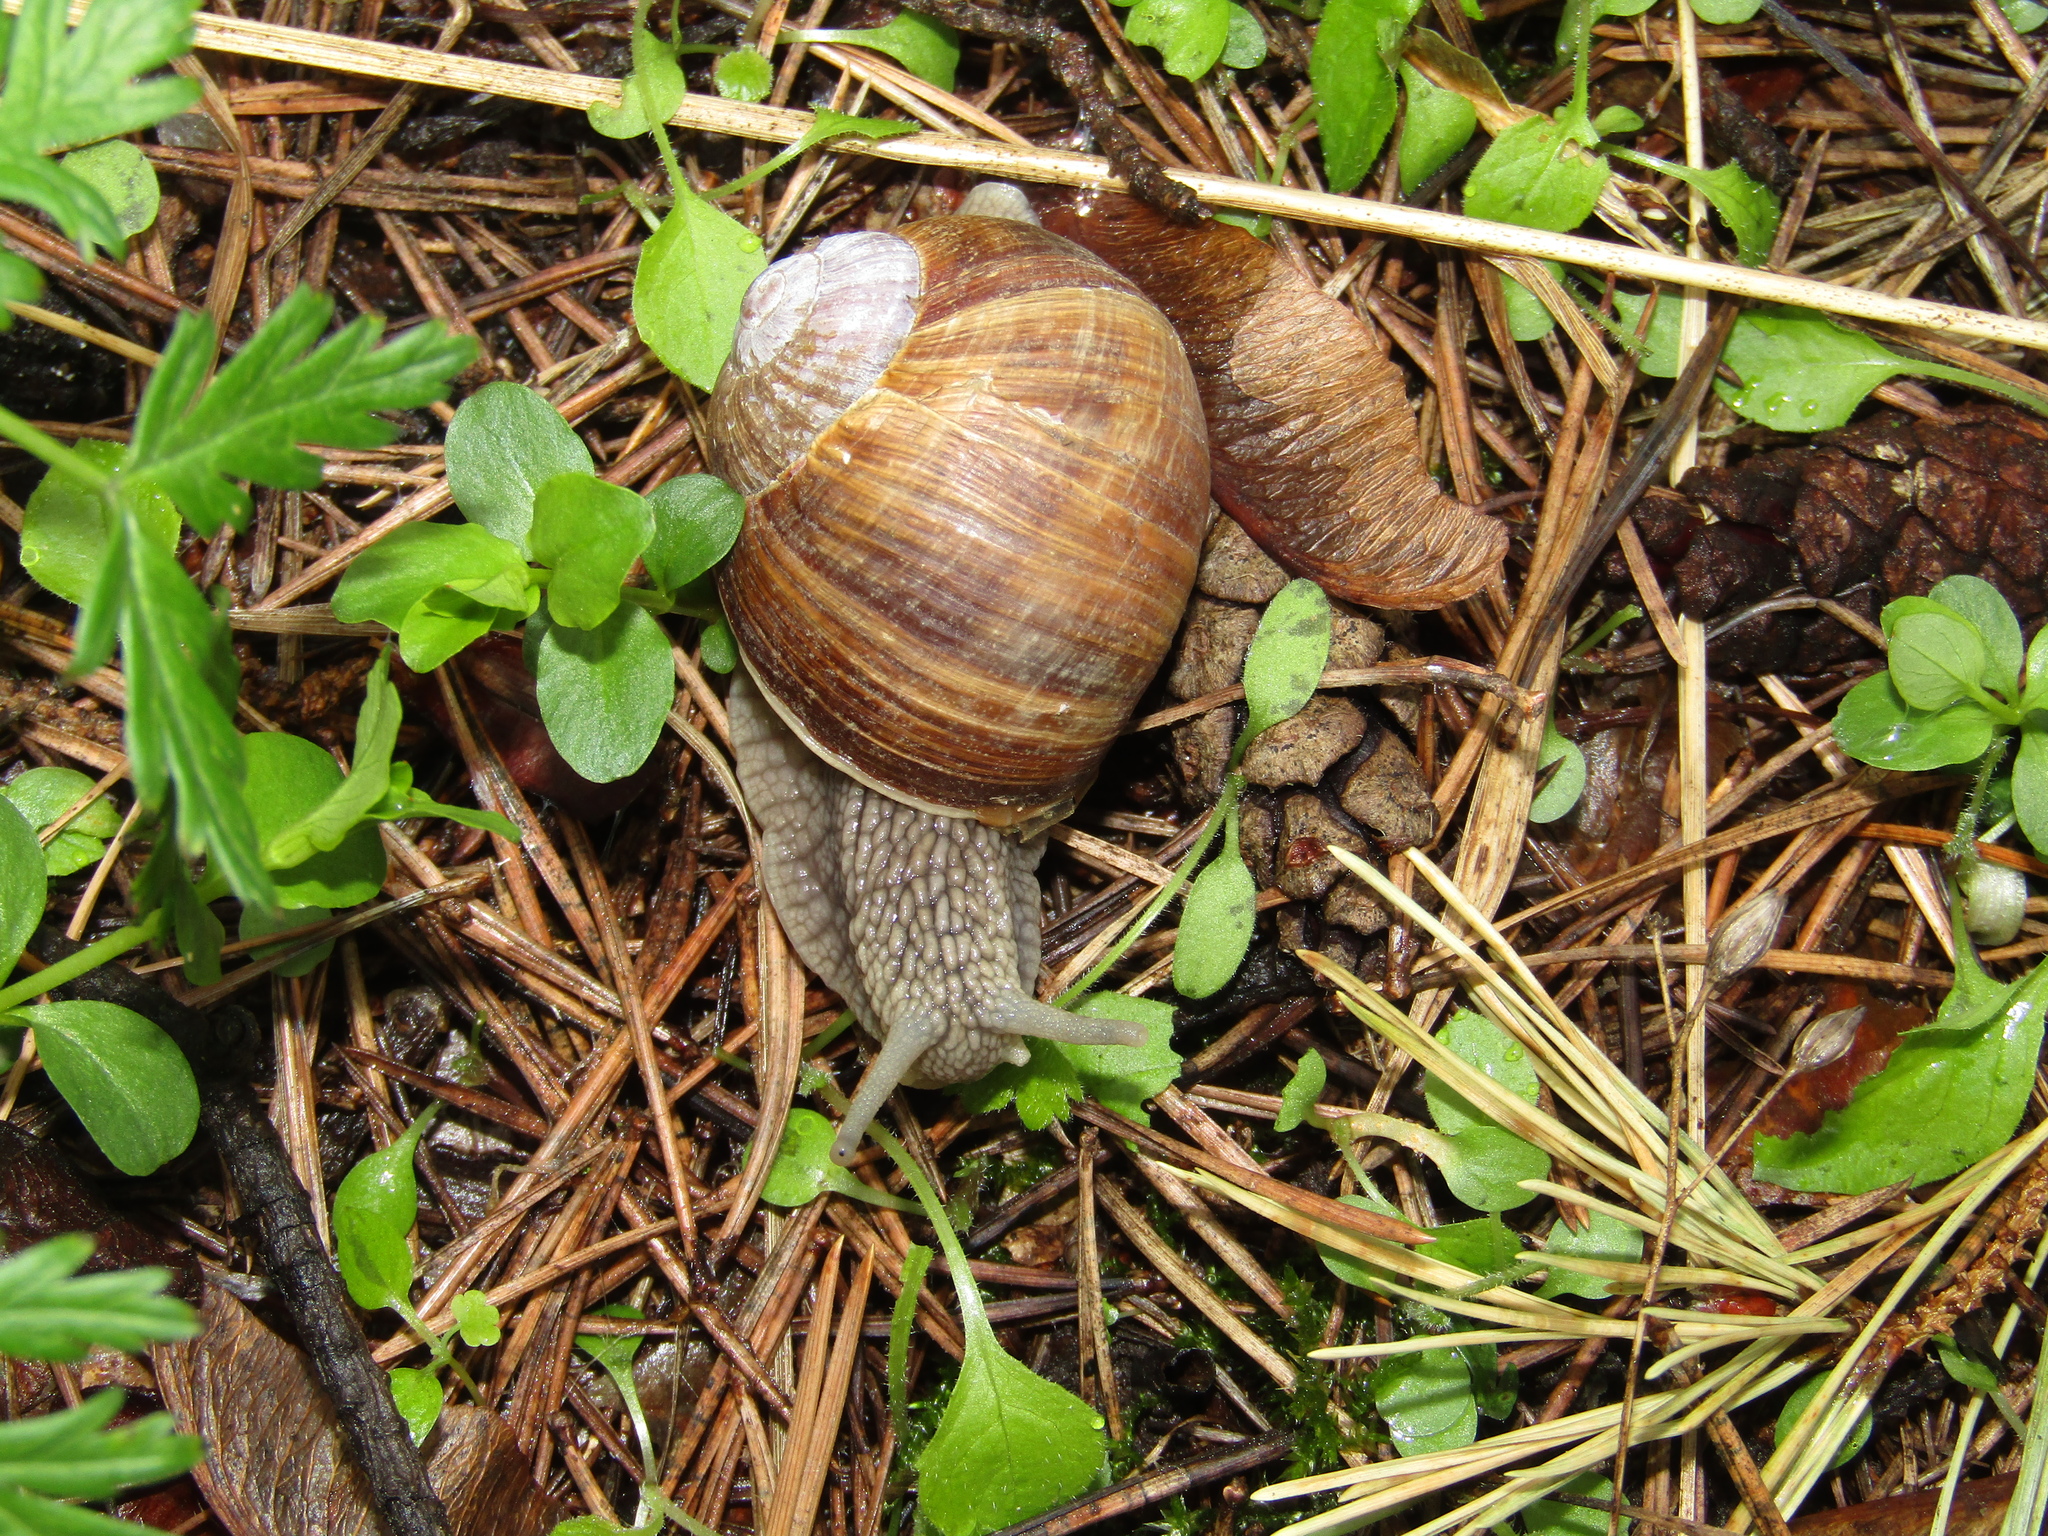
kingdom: Animalia
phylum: Mollusca
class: Gastropoda
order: Stylommatophora
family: Helicidae
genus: Helix
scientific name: Helix pomatia
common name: Roman snail
